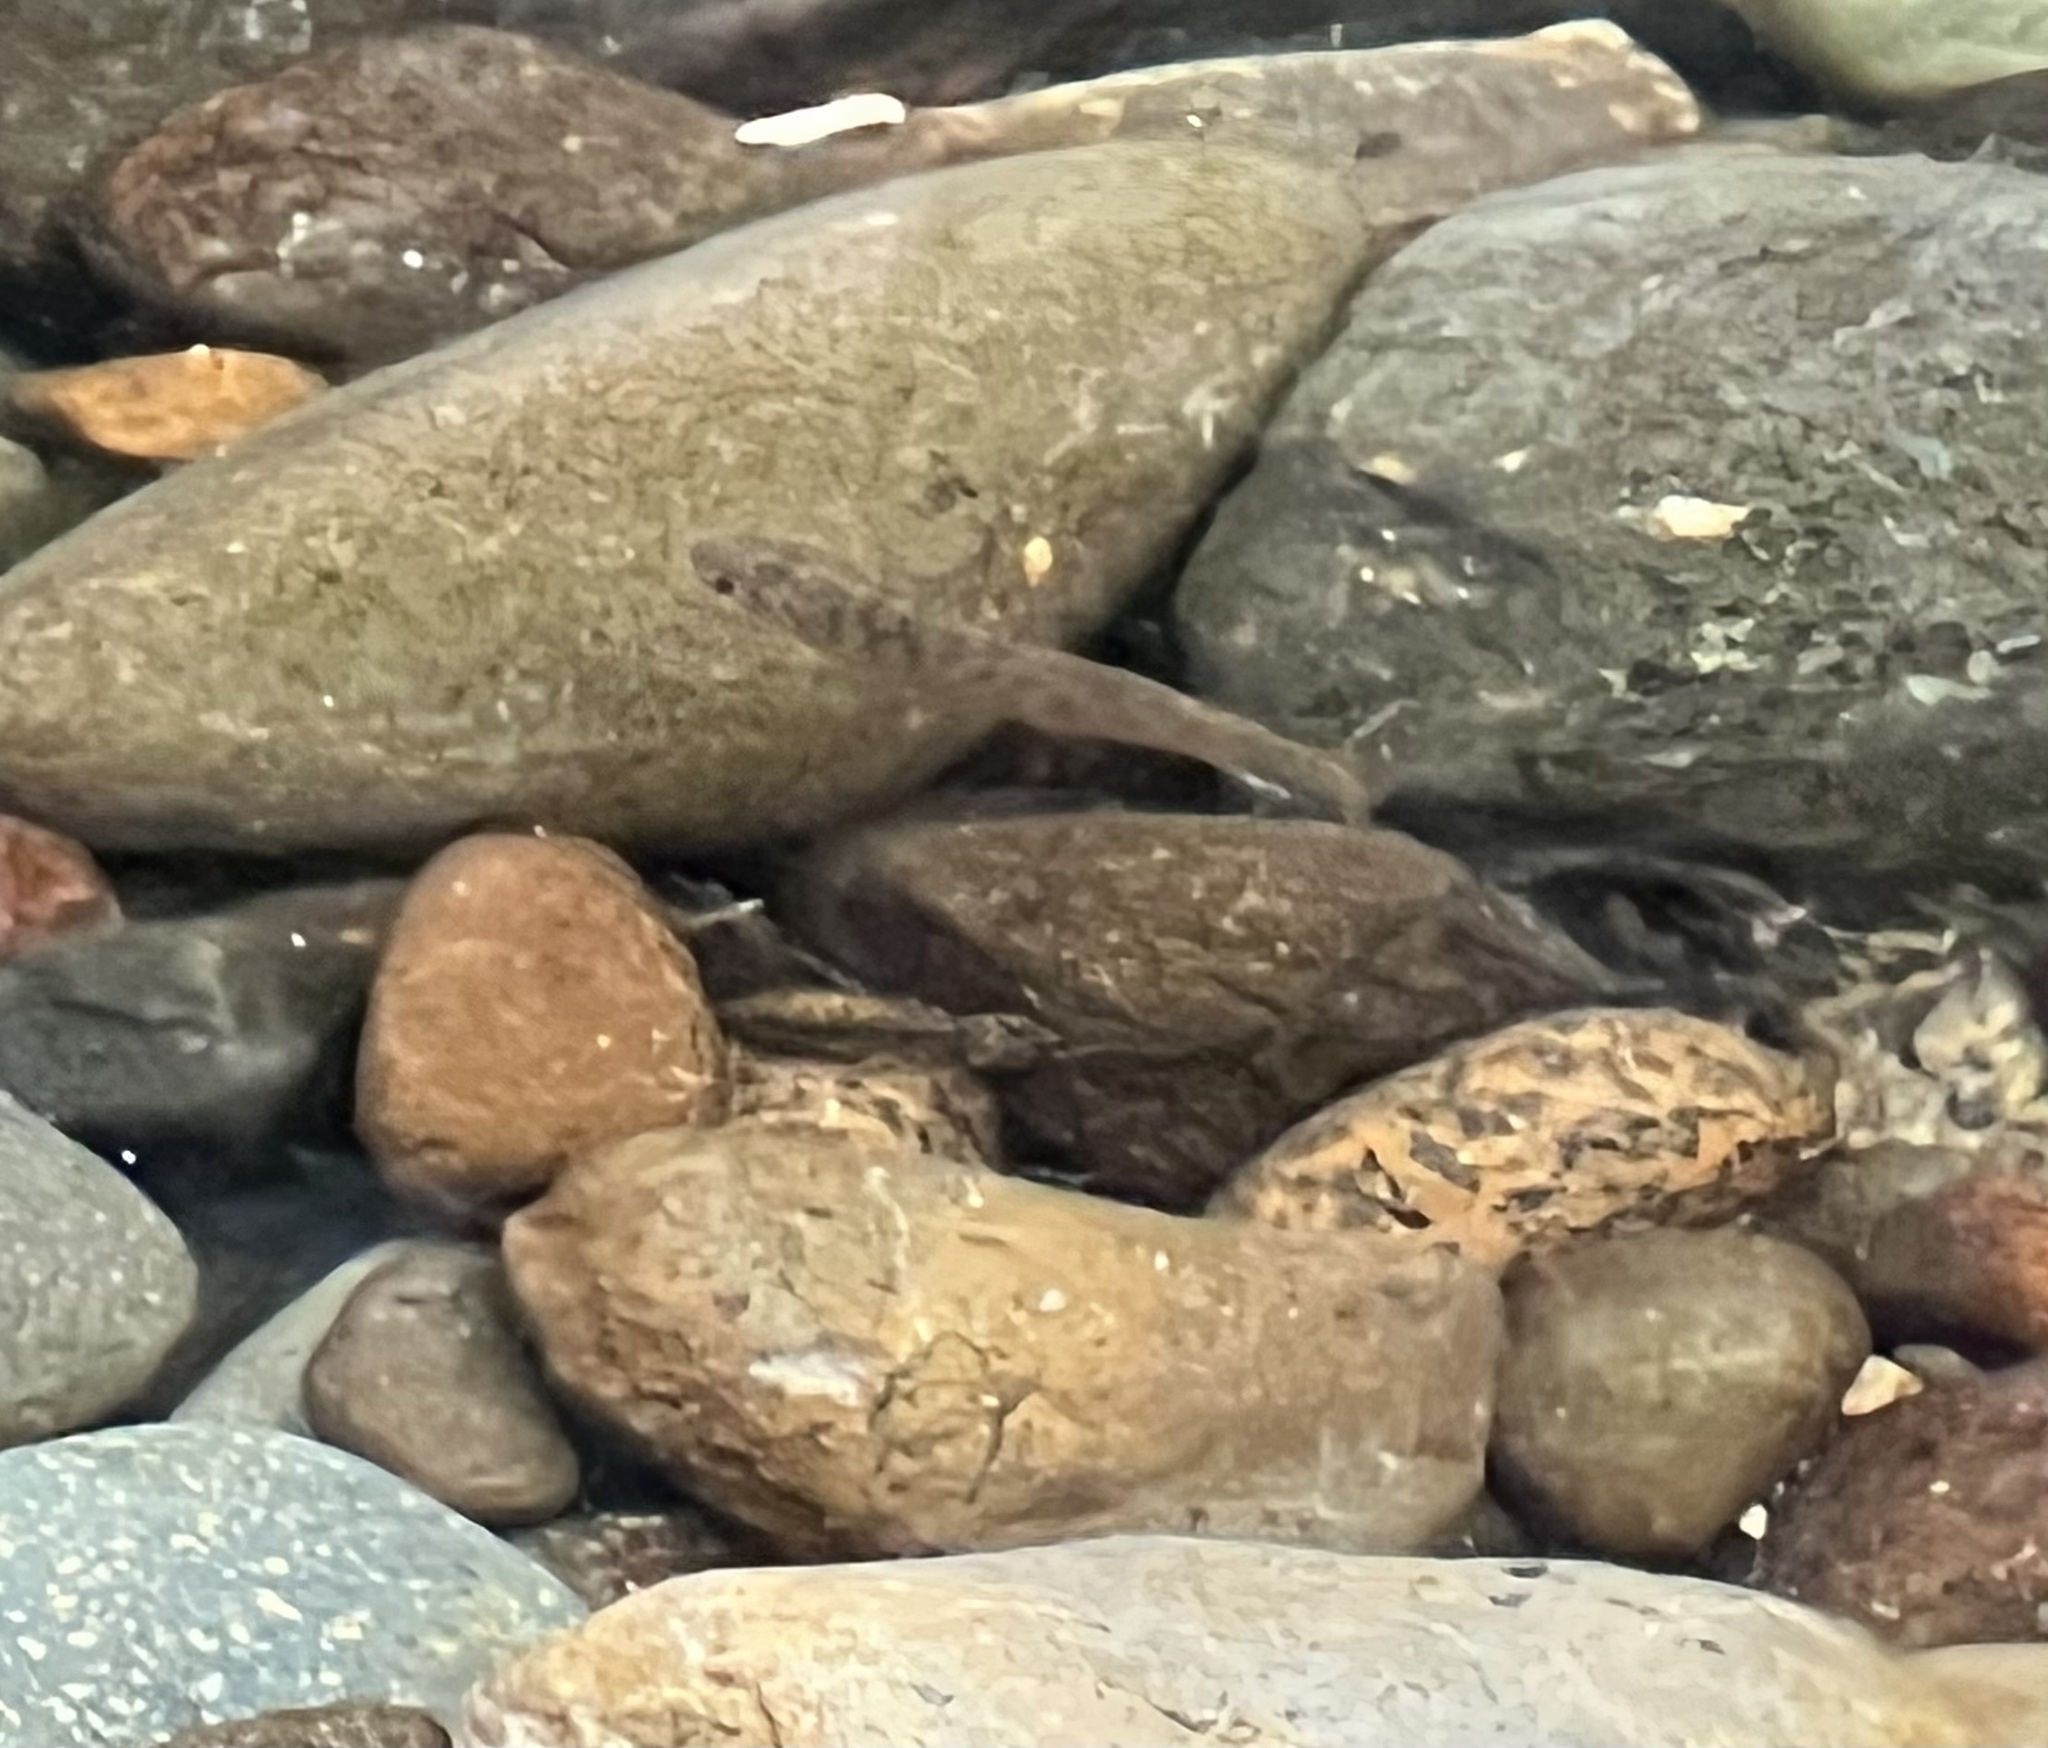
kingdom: Animalia
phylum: Chordata
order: Salmoniformes
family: Salmonidae
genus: Oncorhynchus
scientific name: Oncorhynchus kisutch
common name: Coho salmon
